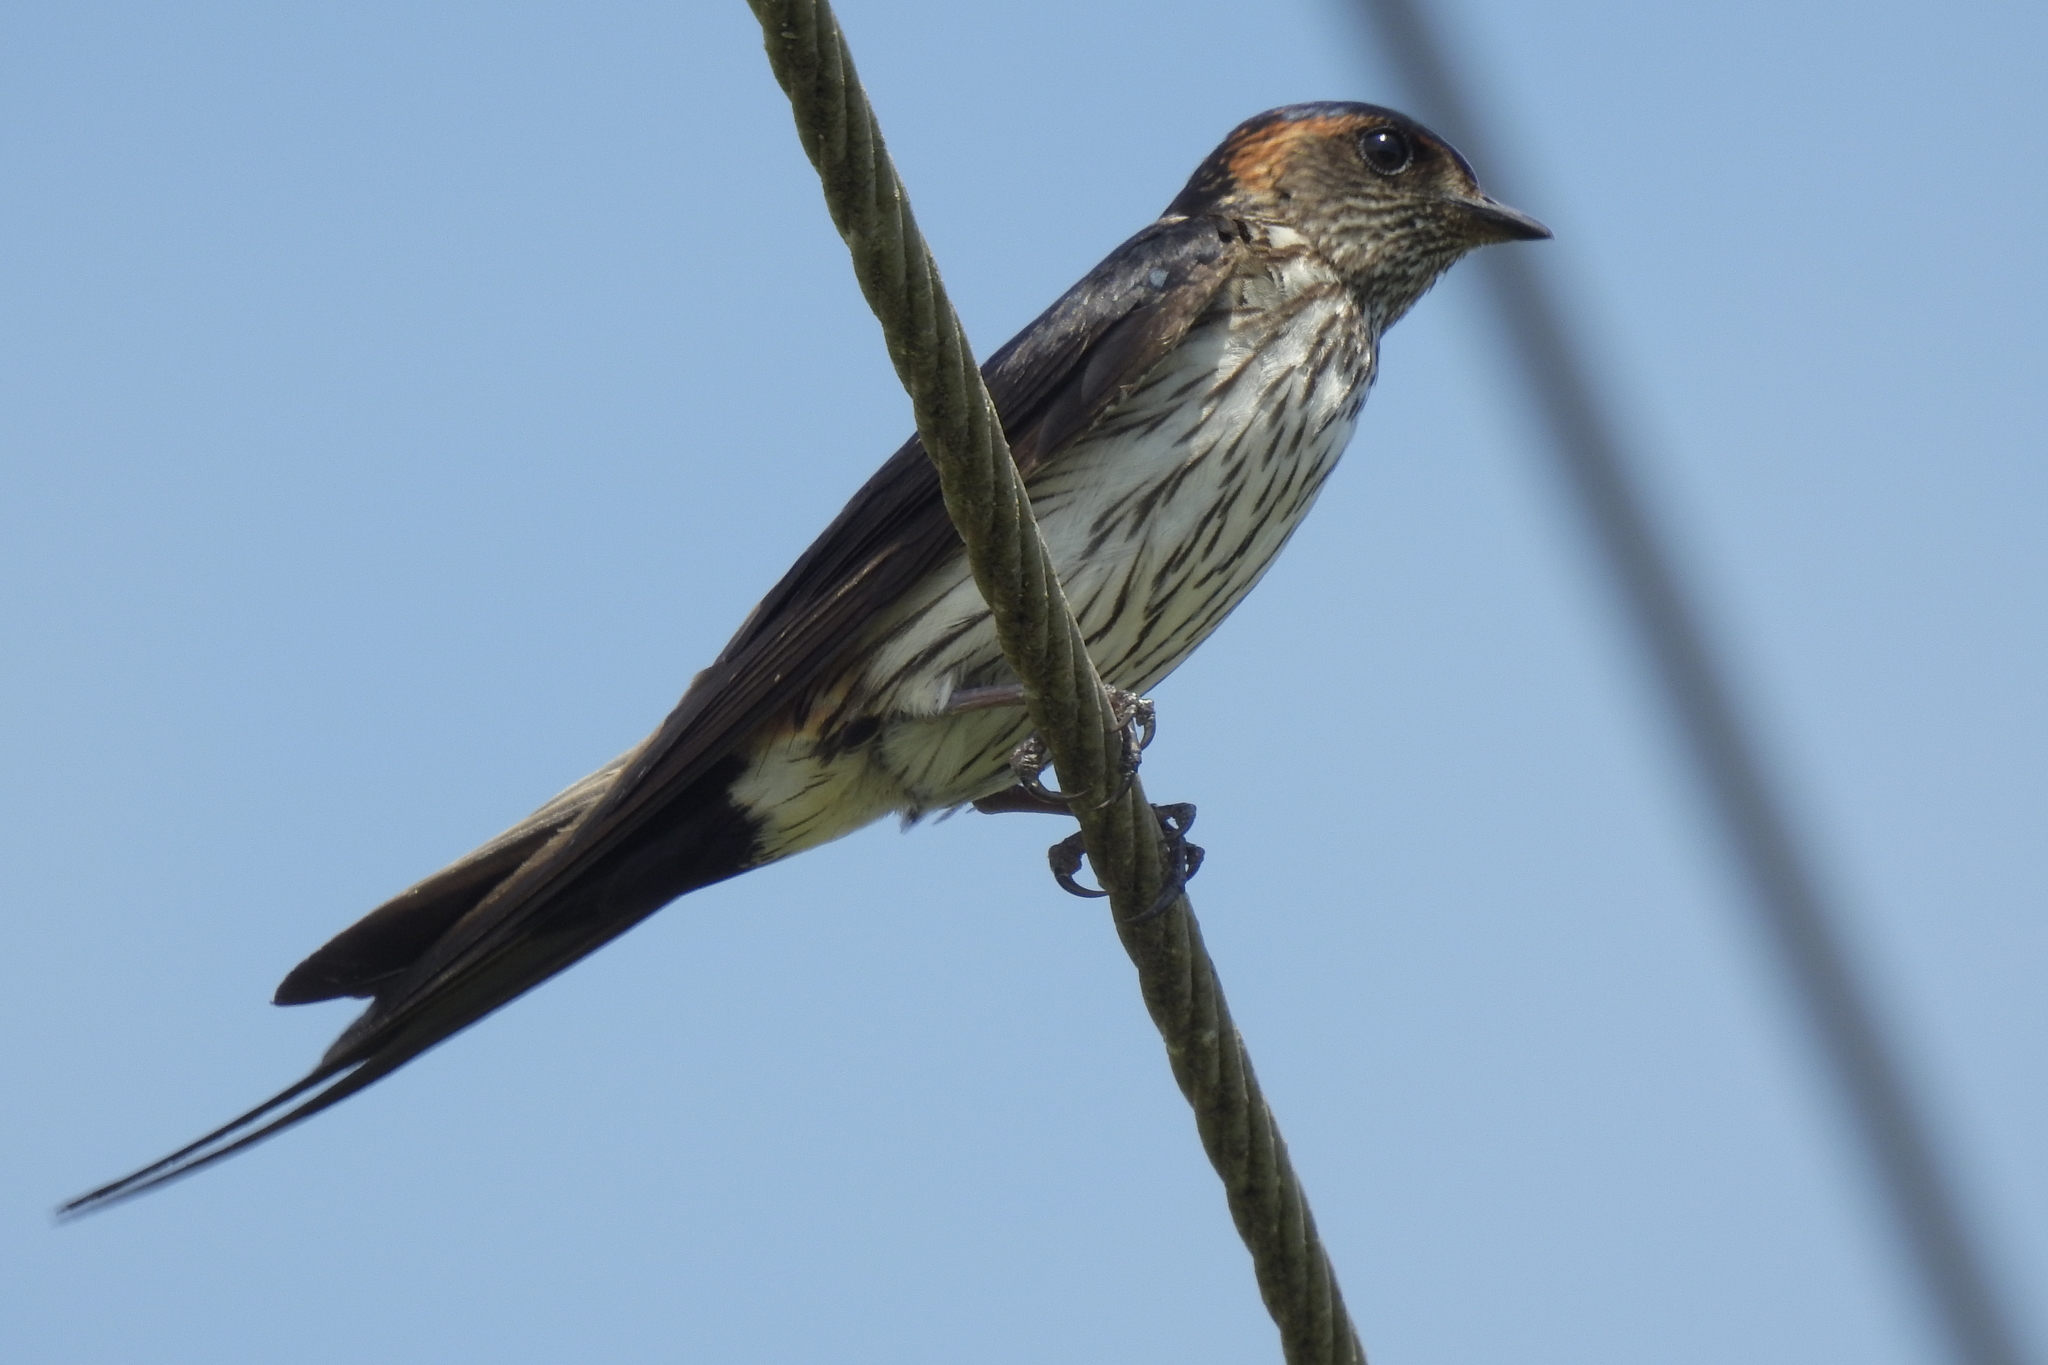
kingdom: Animalia
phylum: Chordata
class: Aves
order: Passeriformes
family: Hirundinidae
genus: Cecropis
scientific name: Cecropis striolata
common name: Striated swallow
